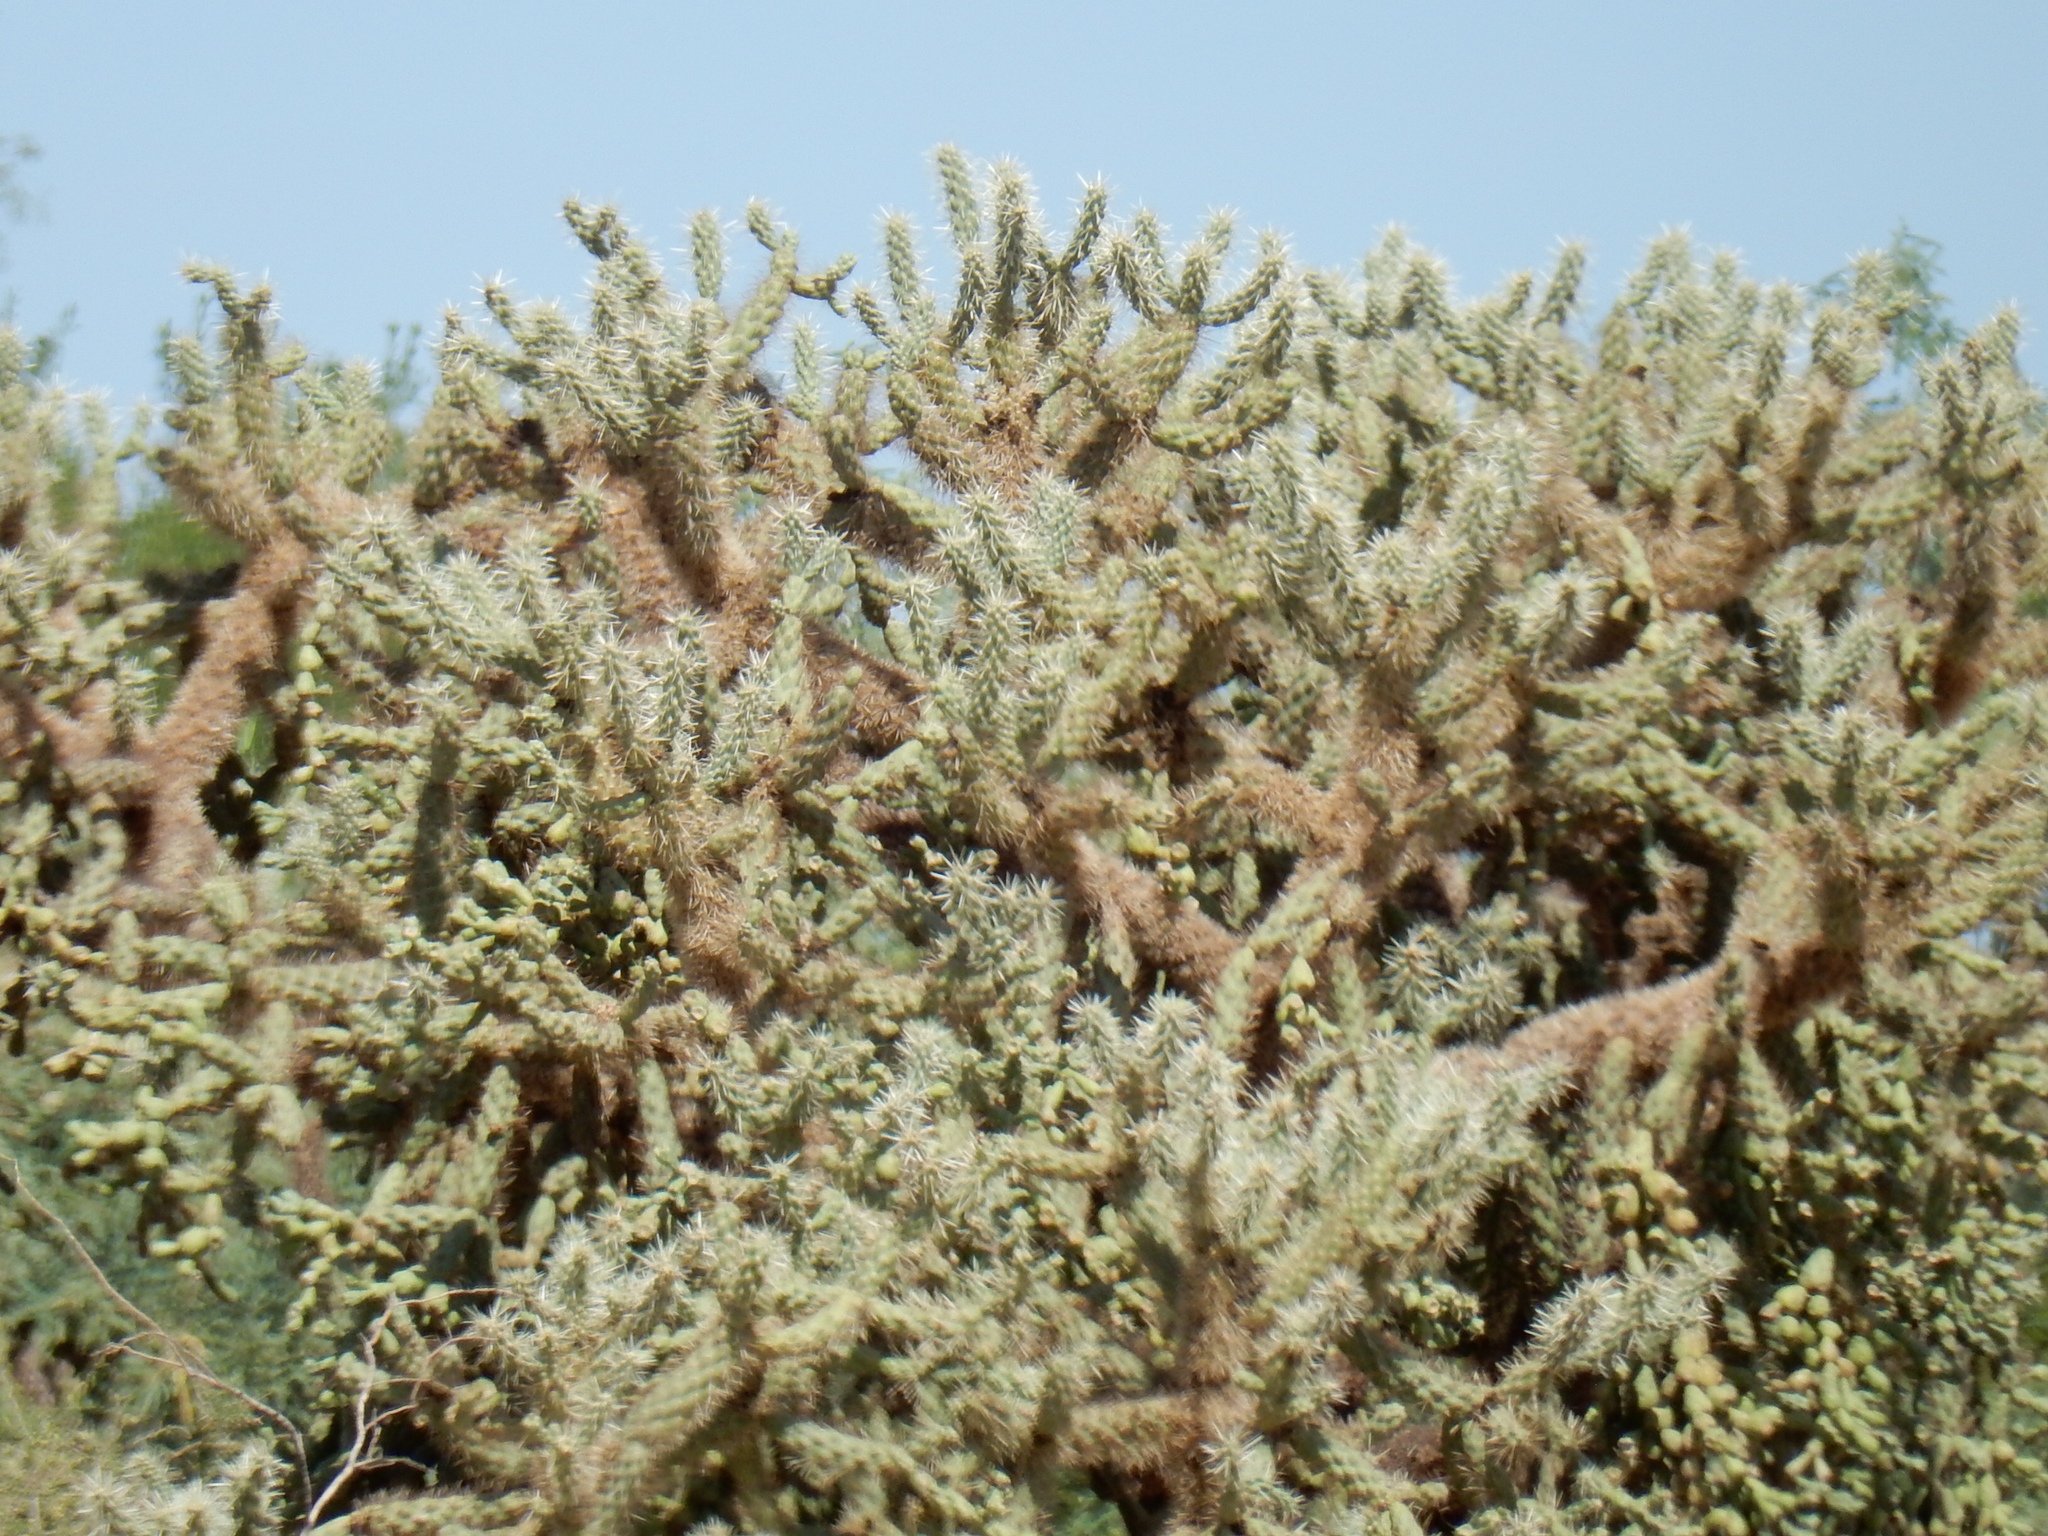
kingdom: Plantae
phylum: Tracheophyta
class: Magnoliopsida
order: Caryophyllales
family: Cactaceae
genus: Cylindropuntia
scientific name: Cylindropuntia fulgida
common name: Jumping cholla
